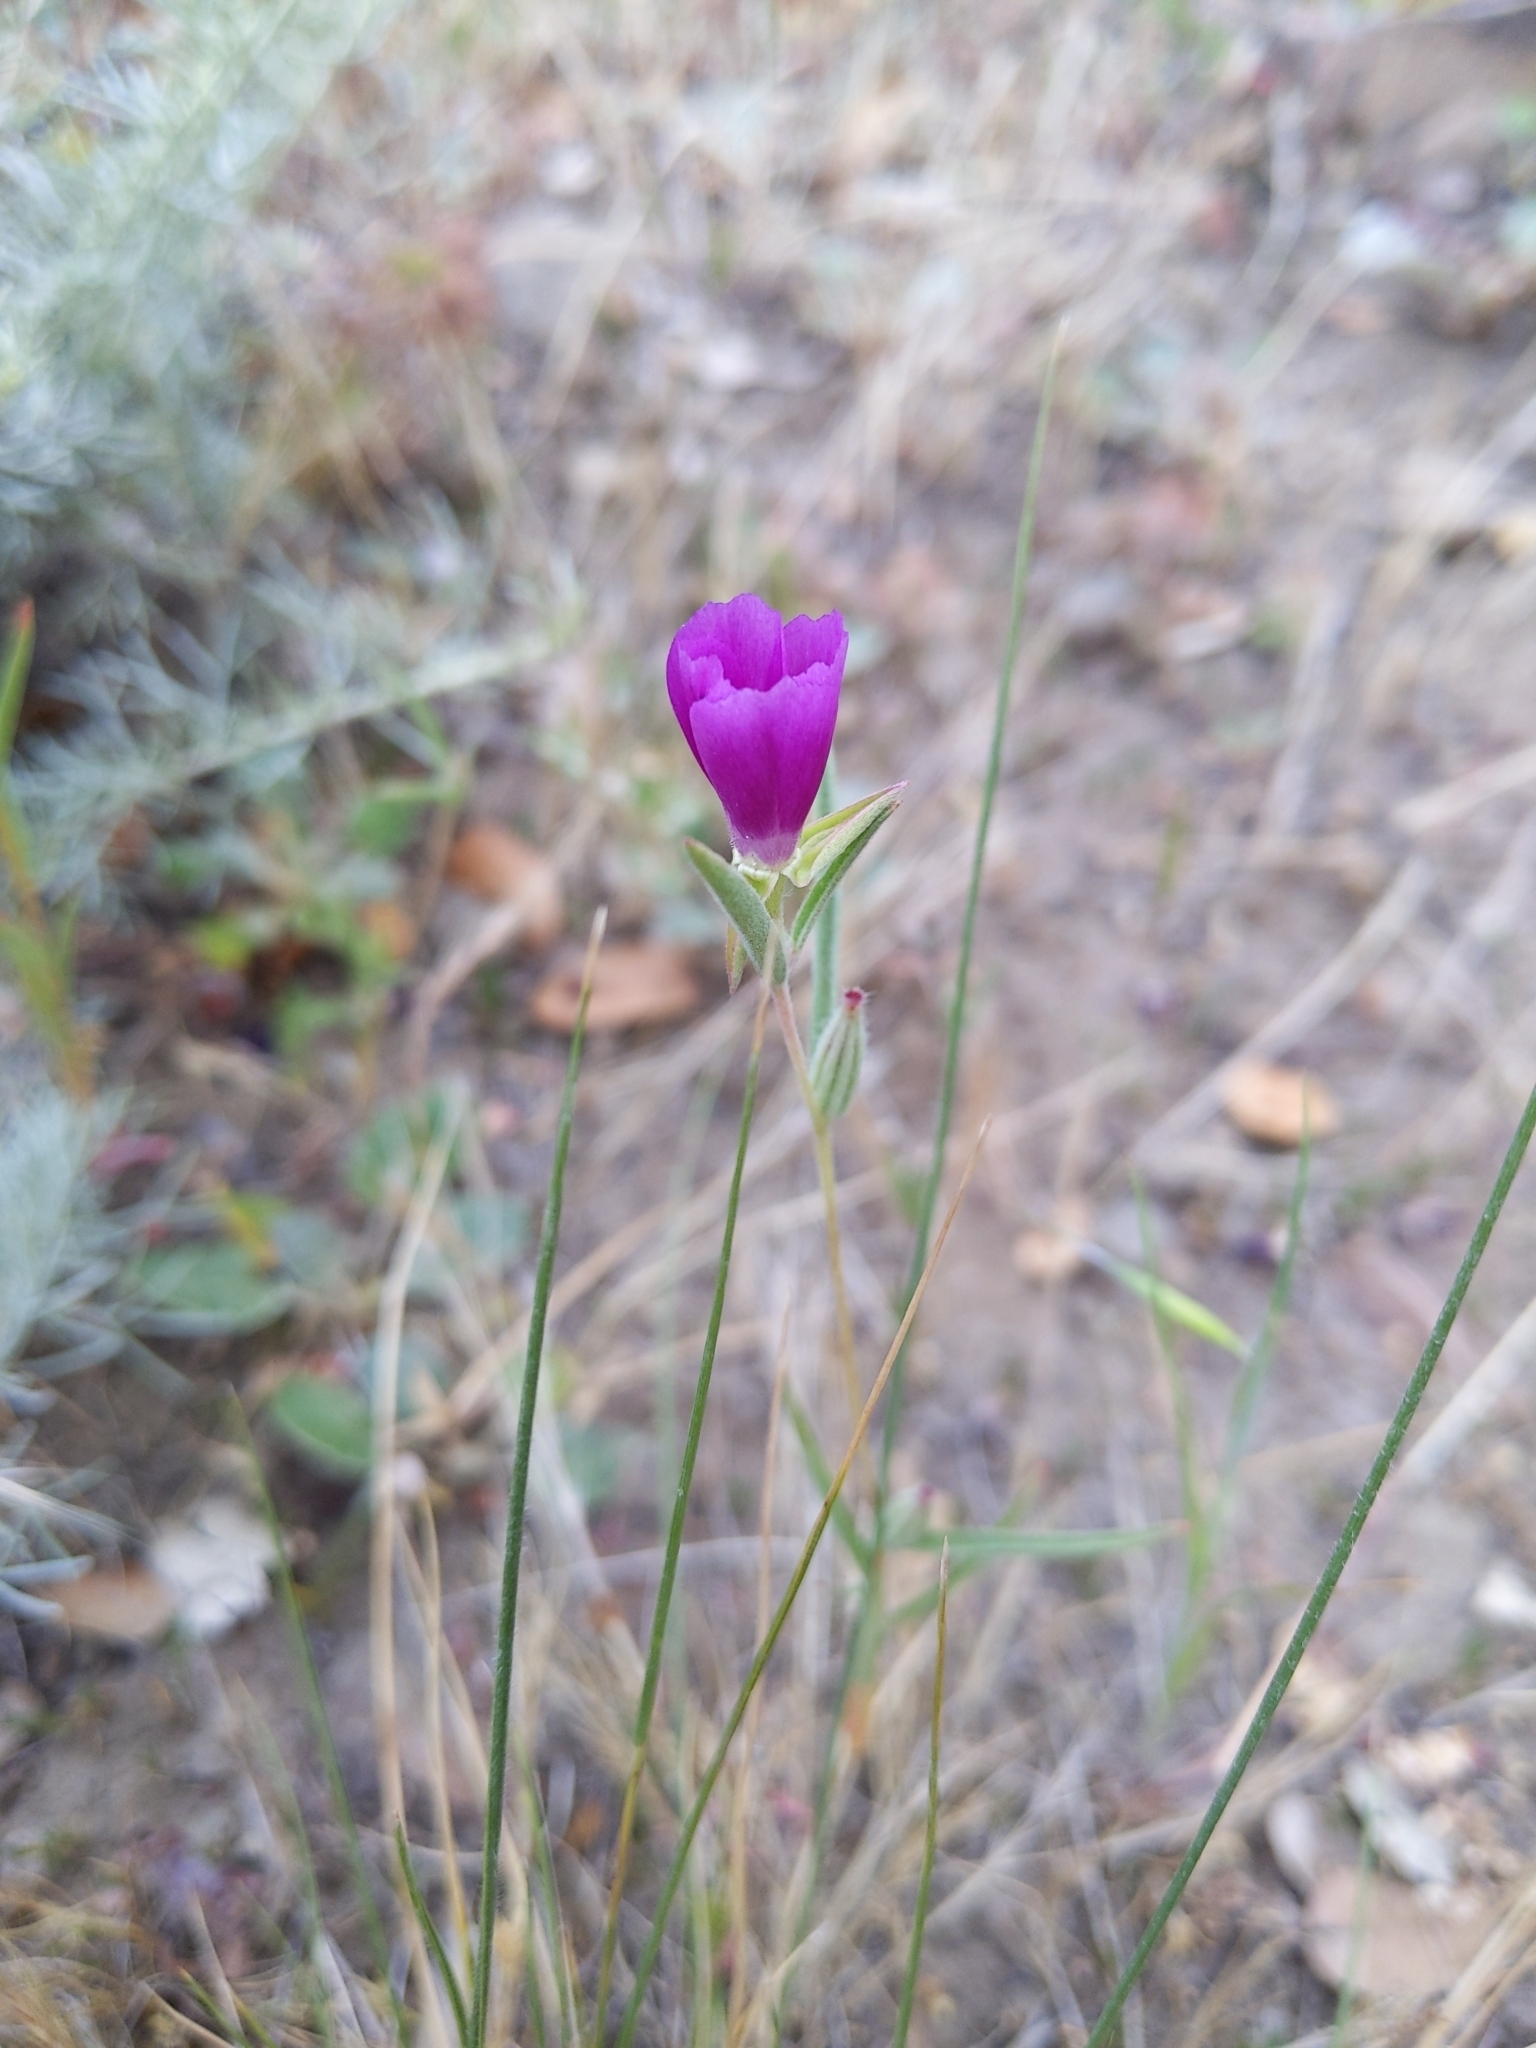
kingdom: Plantae
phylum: Tracheophyta
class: Magnoliopsida
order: Myrtales
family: Onagraceae
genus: Clarkia
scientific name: Clarkia purpurea
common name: Purple clarkia
